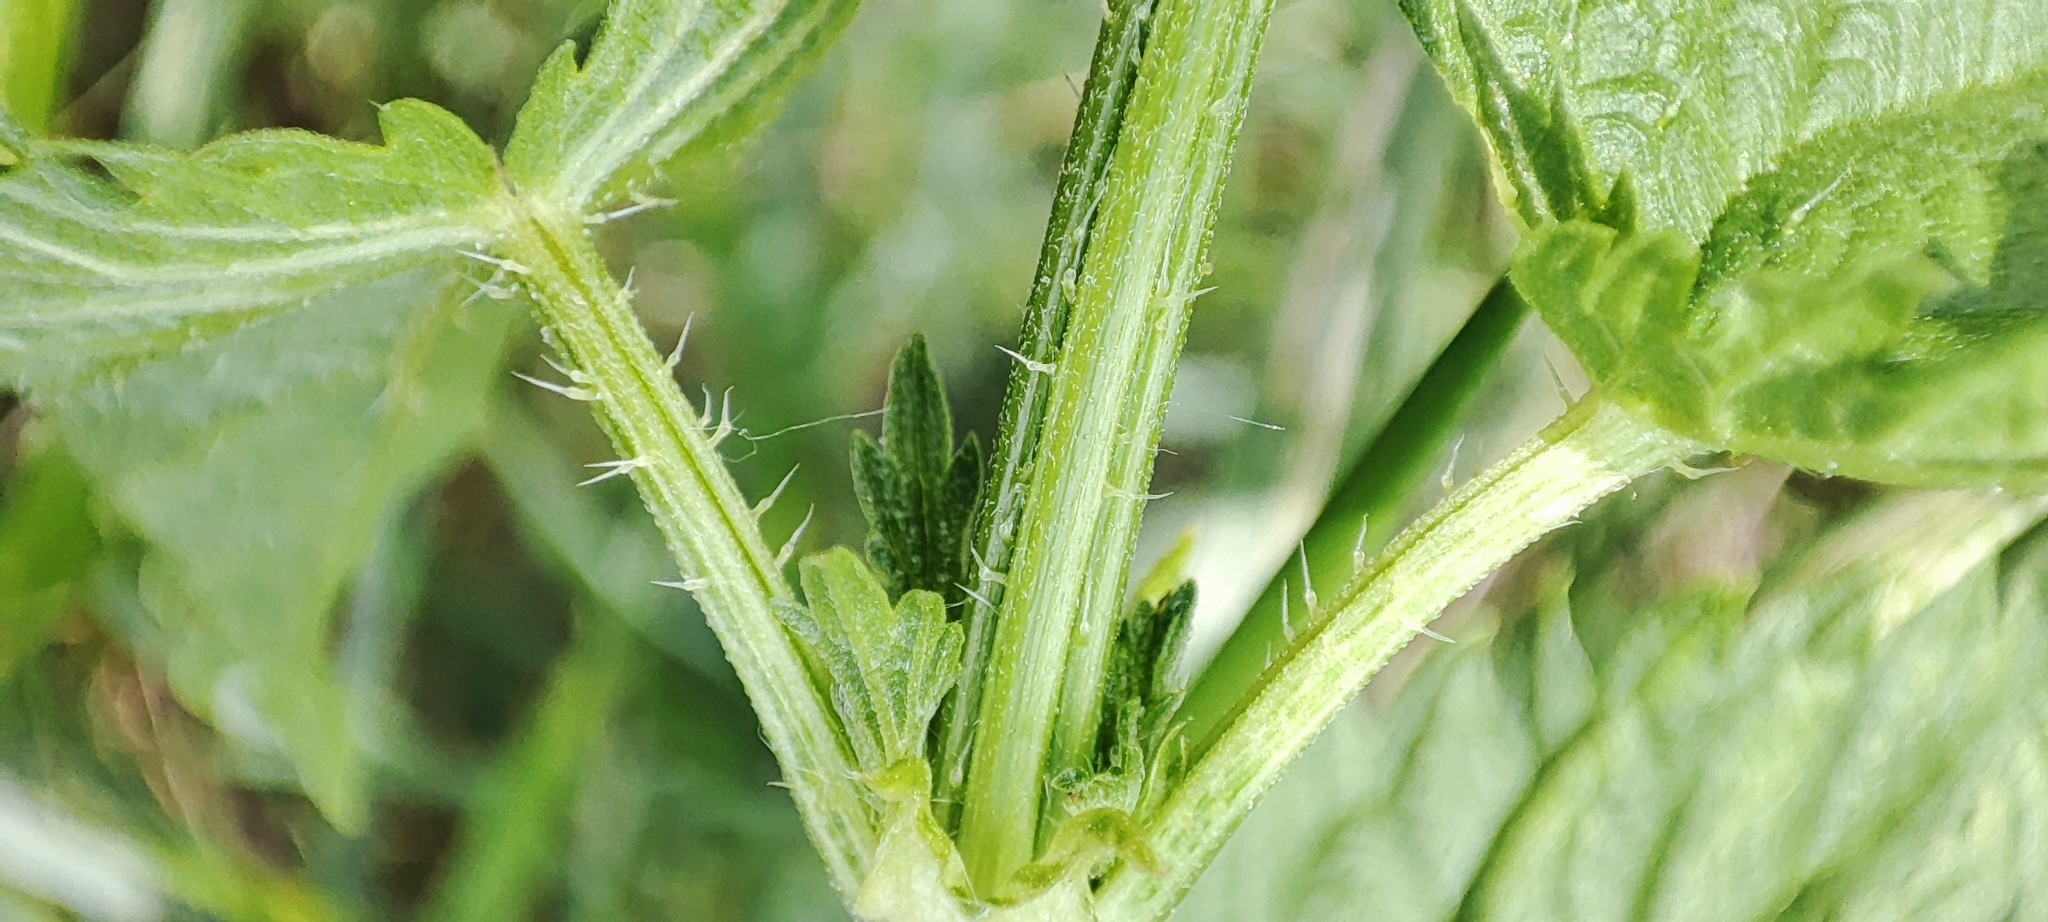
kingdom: Plantae
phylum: Tracheophyta
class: Magnoliopsida
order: Rosales
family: Urticaceae
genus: Urtica
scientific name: Urtica dioica
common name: Common nettle
